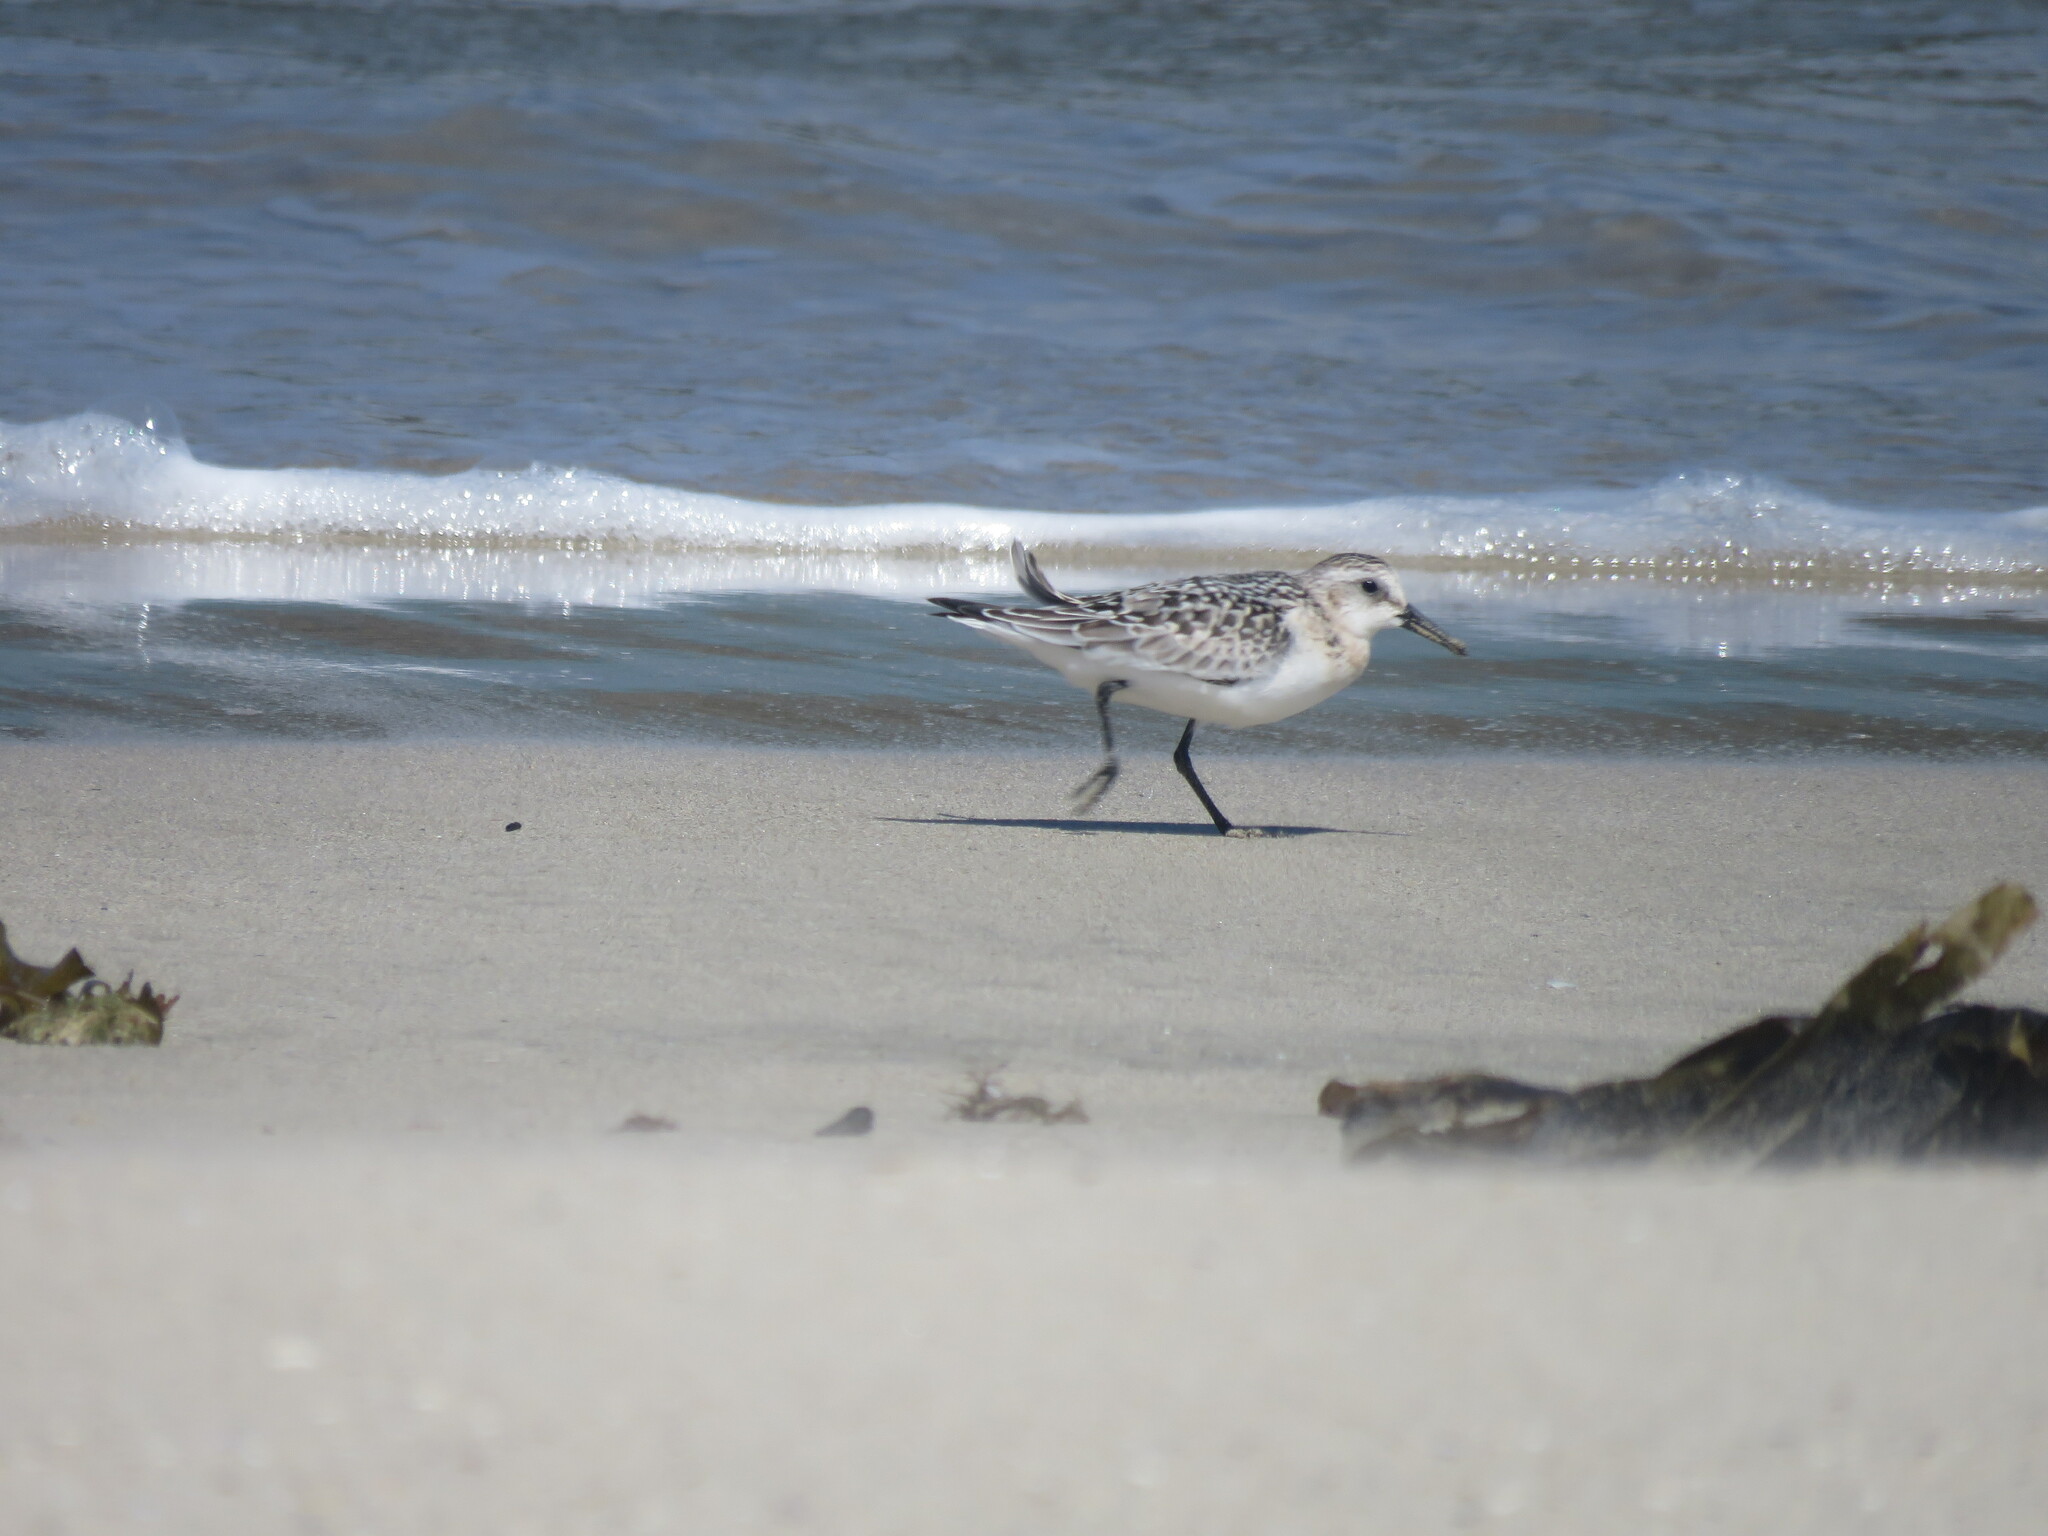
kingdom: Animalia
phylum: Chordata
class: Aves
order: Charadriiformes
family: Scolopacidae
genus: Calidris
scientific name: Calidris alba
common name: Sanderling
